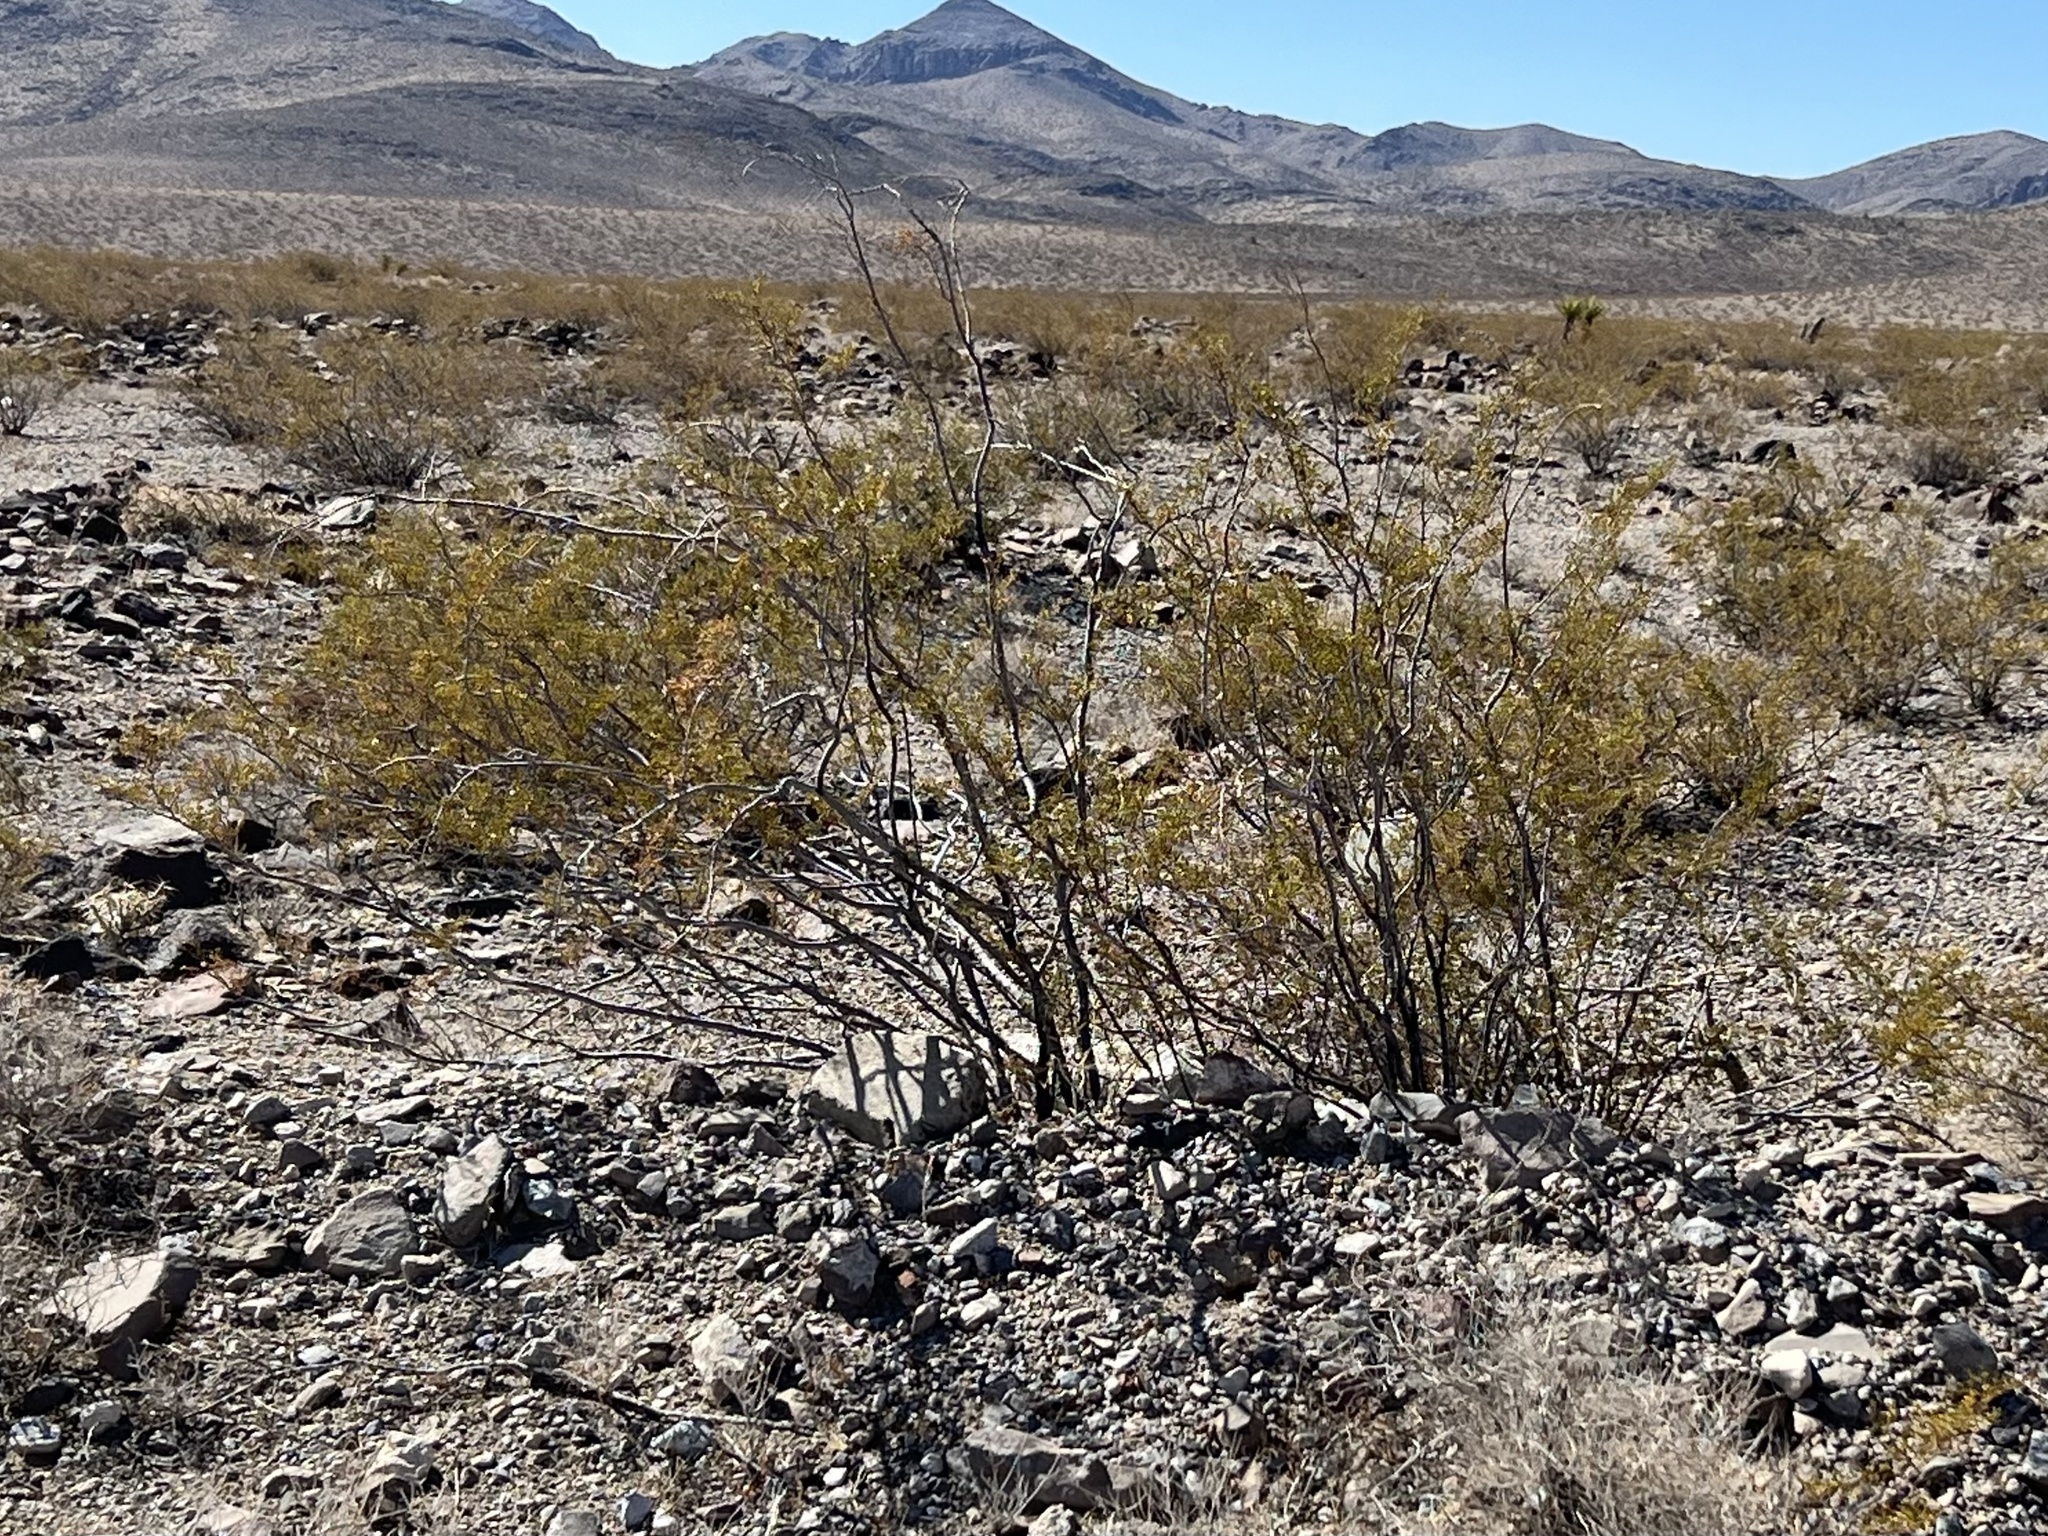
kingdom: Plantae
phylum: Tracheophyta
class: Magnoliopsida
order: Zygophyllales
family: Zygophyllaceae
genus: Larrea
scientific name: Larrea tridentata
